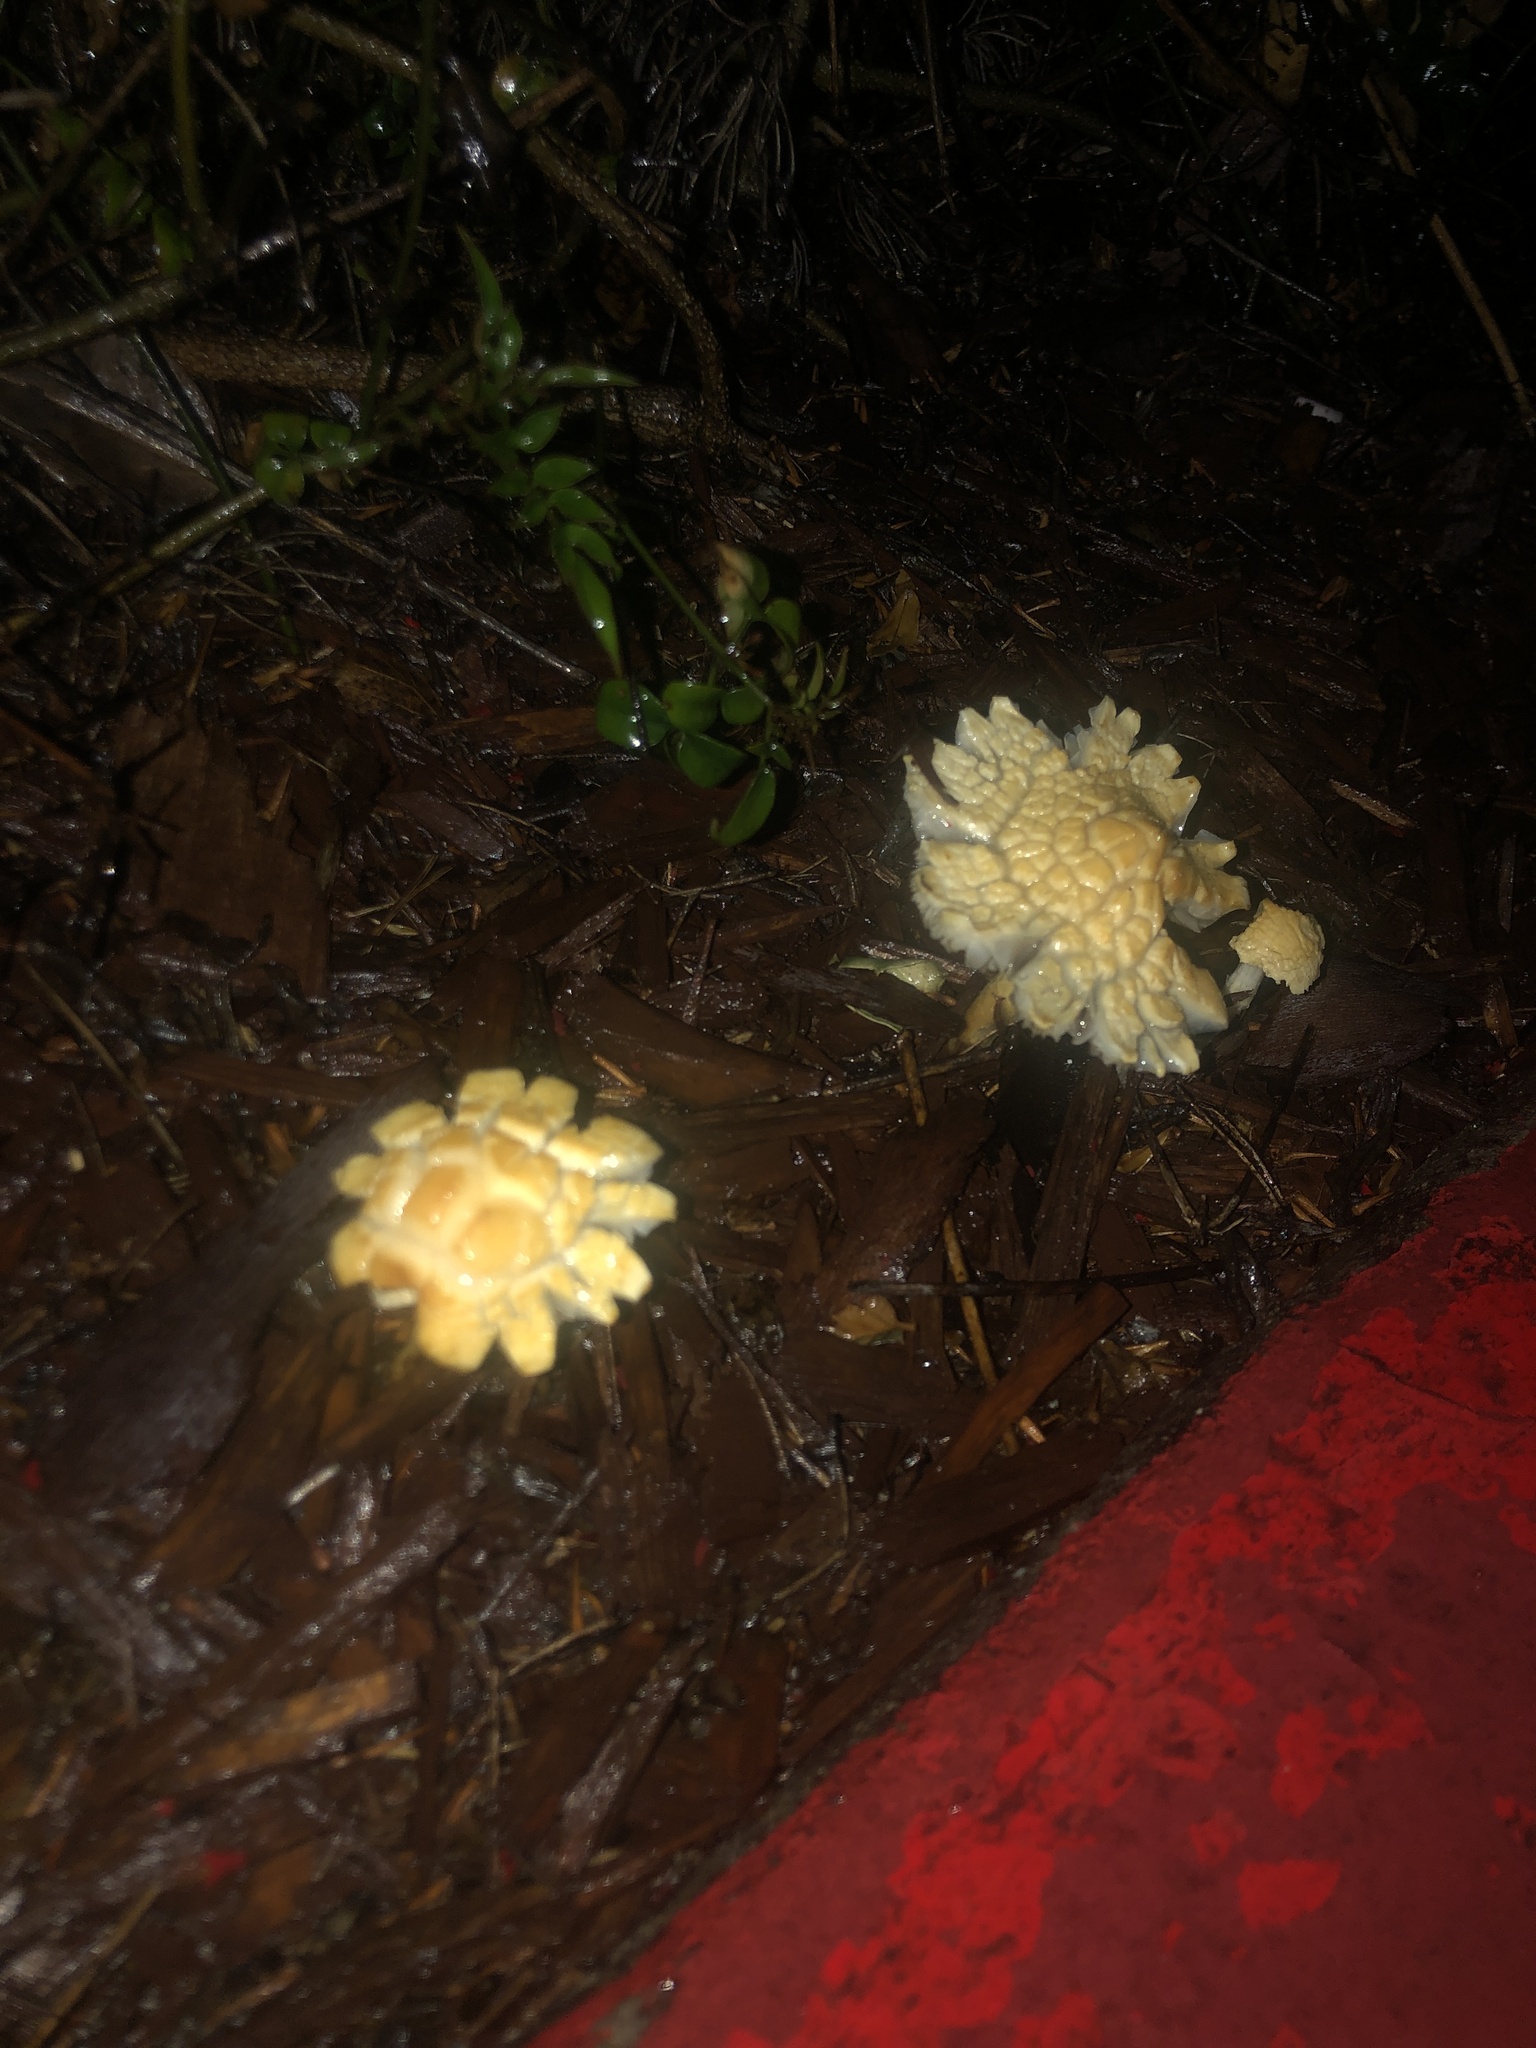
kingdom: Fungi
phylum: Basidiomycota
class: Agaricomycetes
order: Agaricales
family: Strophariaceae
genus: Leratiomyces
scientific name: Leratiomyces percevalii
